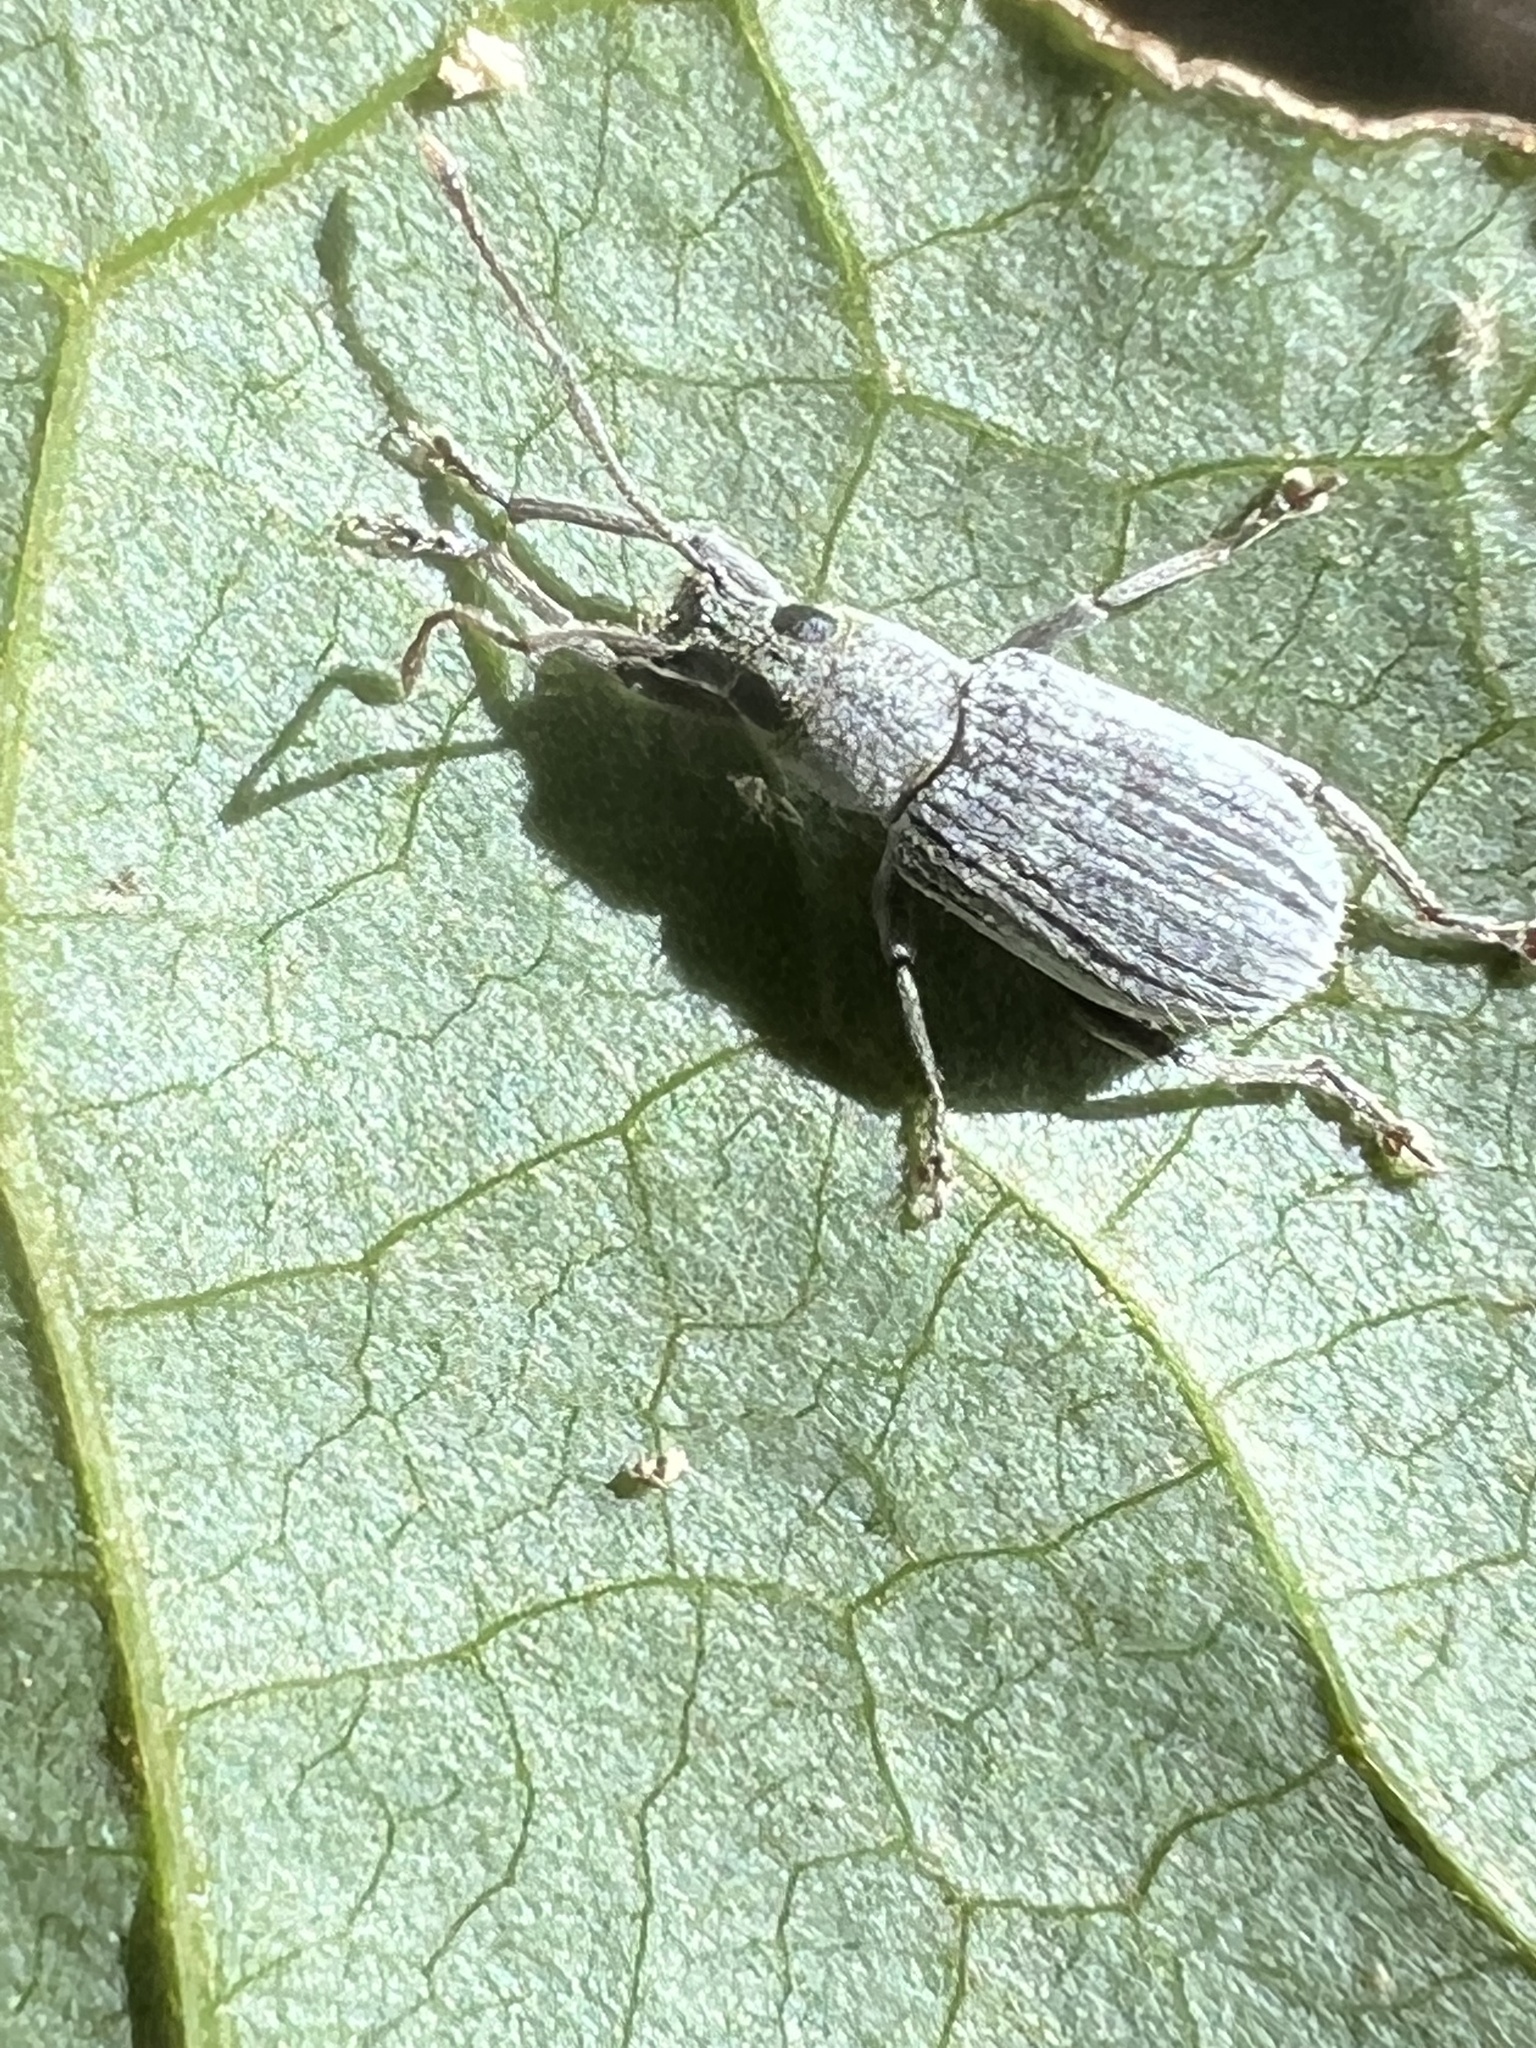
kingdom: Animalia
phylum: Arthropoda
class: Insecta
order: Coleoptera
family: Curculionidae
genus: Cyrtepistomus
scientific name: Cyrtepistomus castaneus
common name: Weevil
